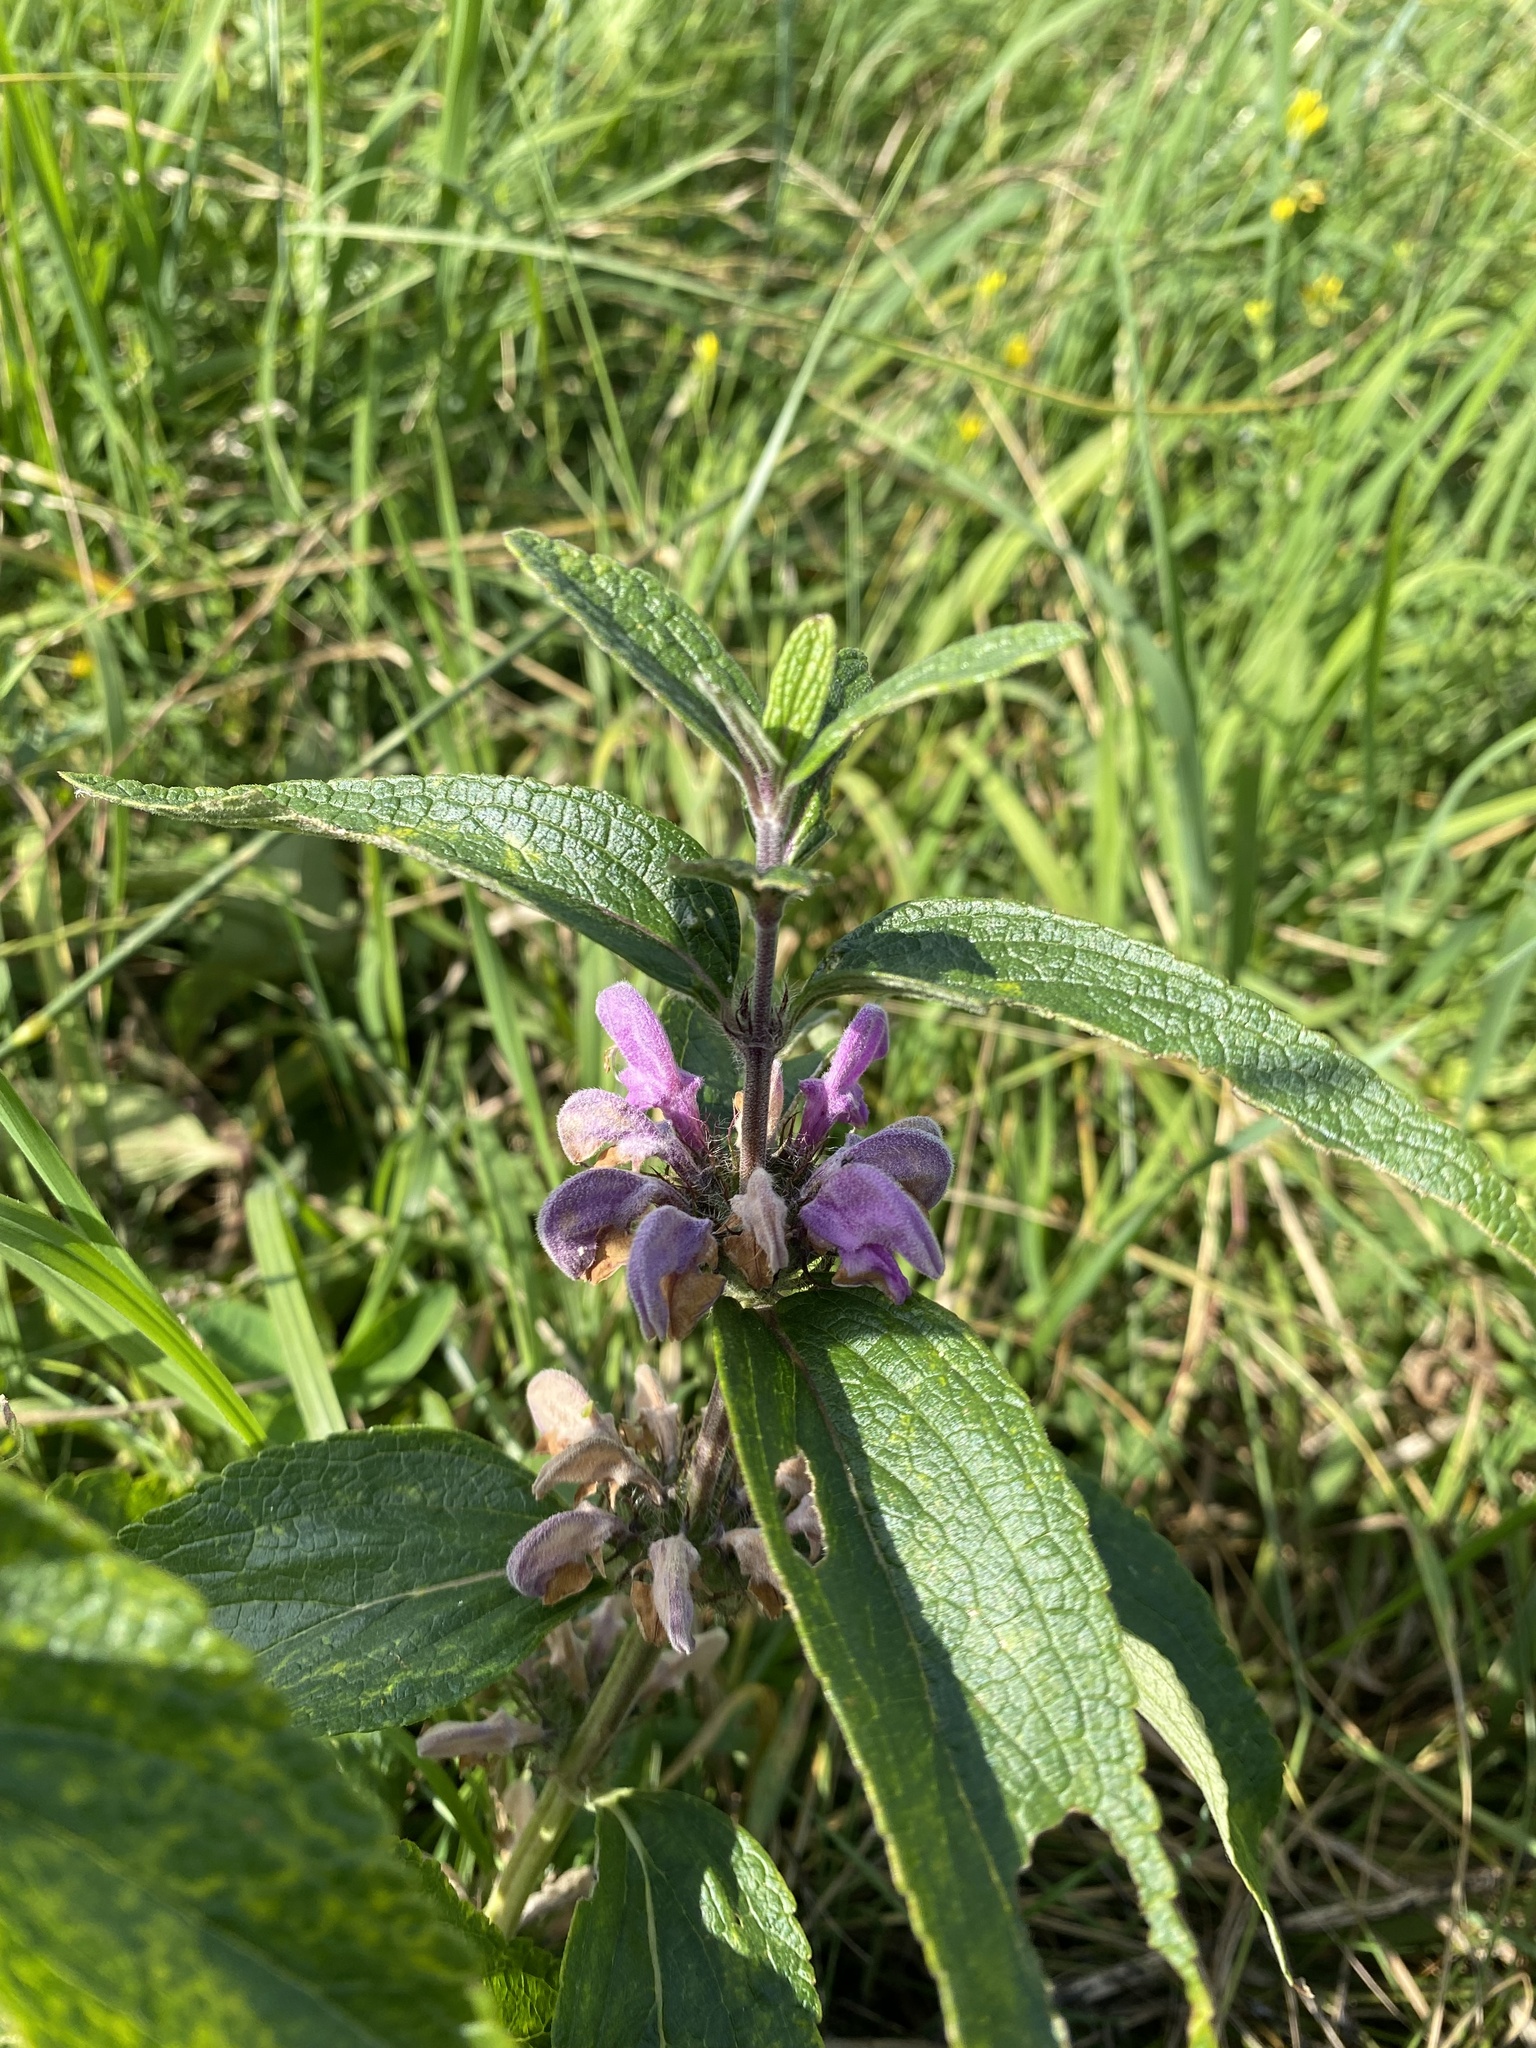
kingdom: Plantae
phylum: Tracheophyta
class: Magnoliopsida
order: Lamiales
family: Lamiaceae
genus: Phlomis
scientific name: Phlomis herba-venti
